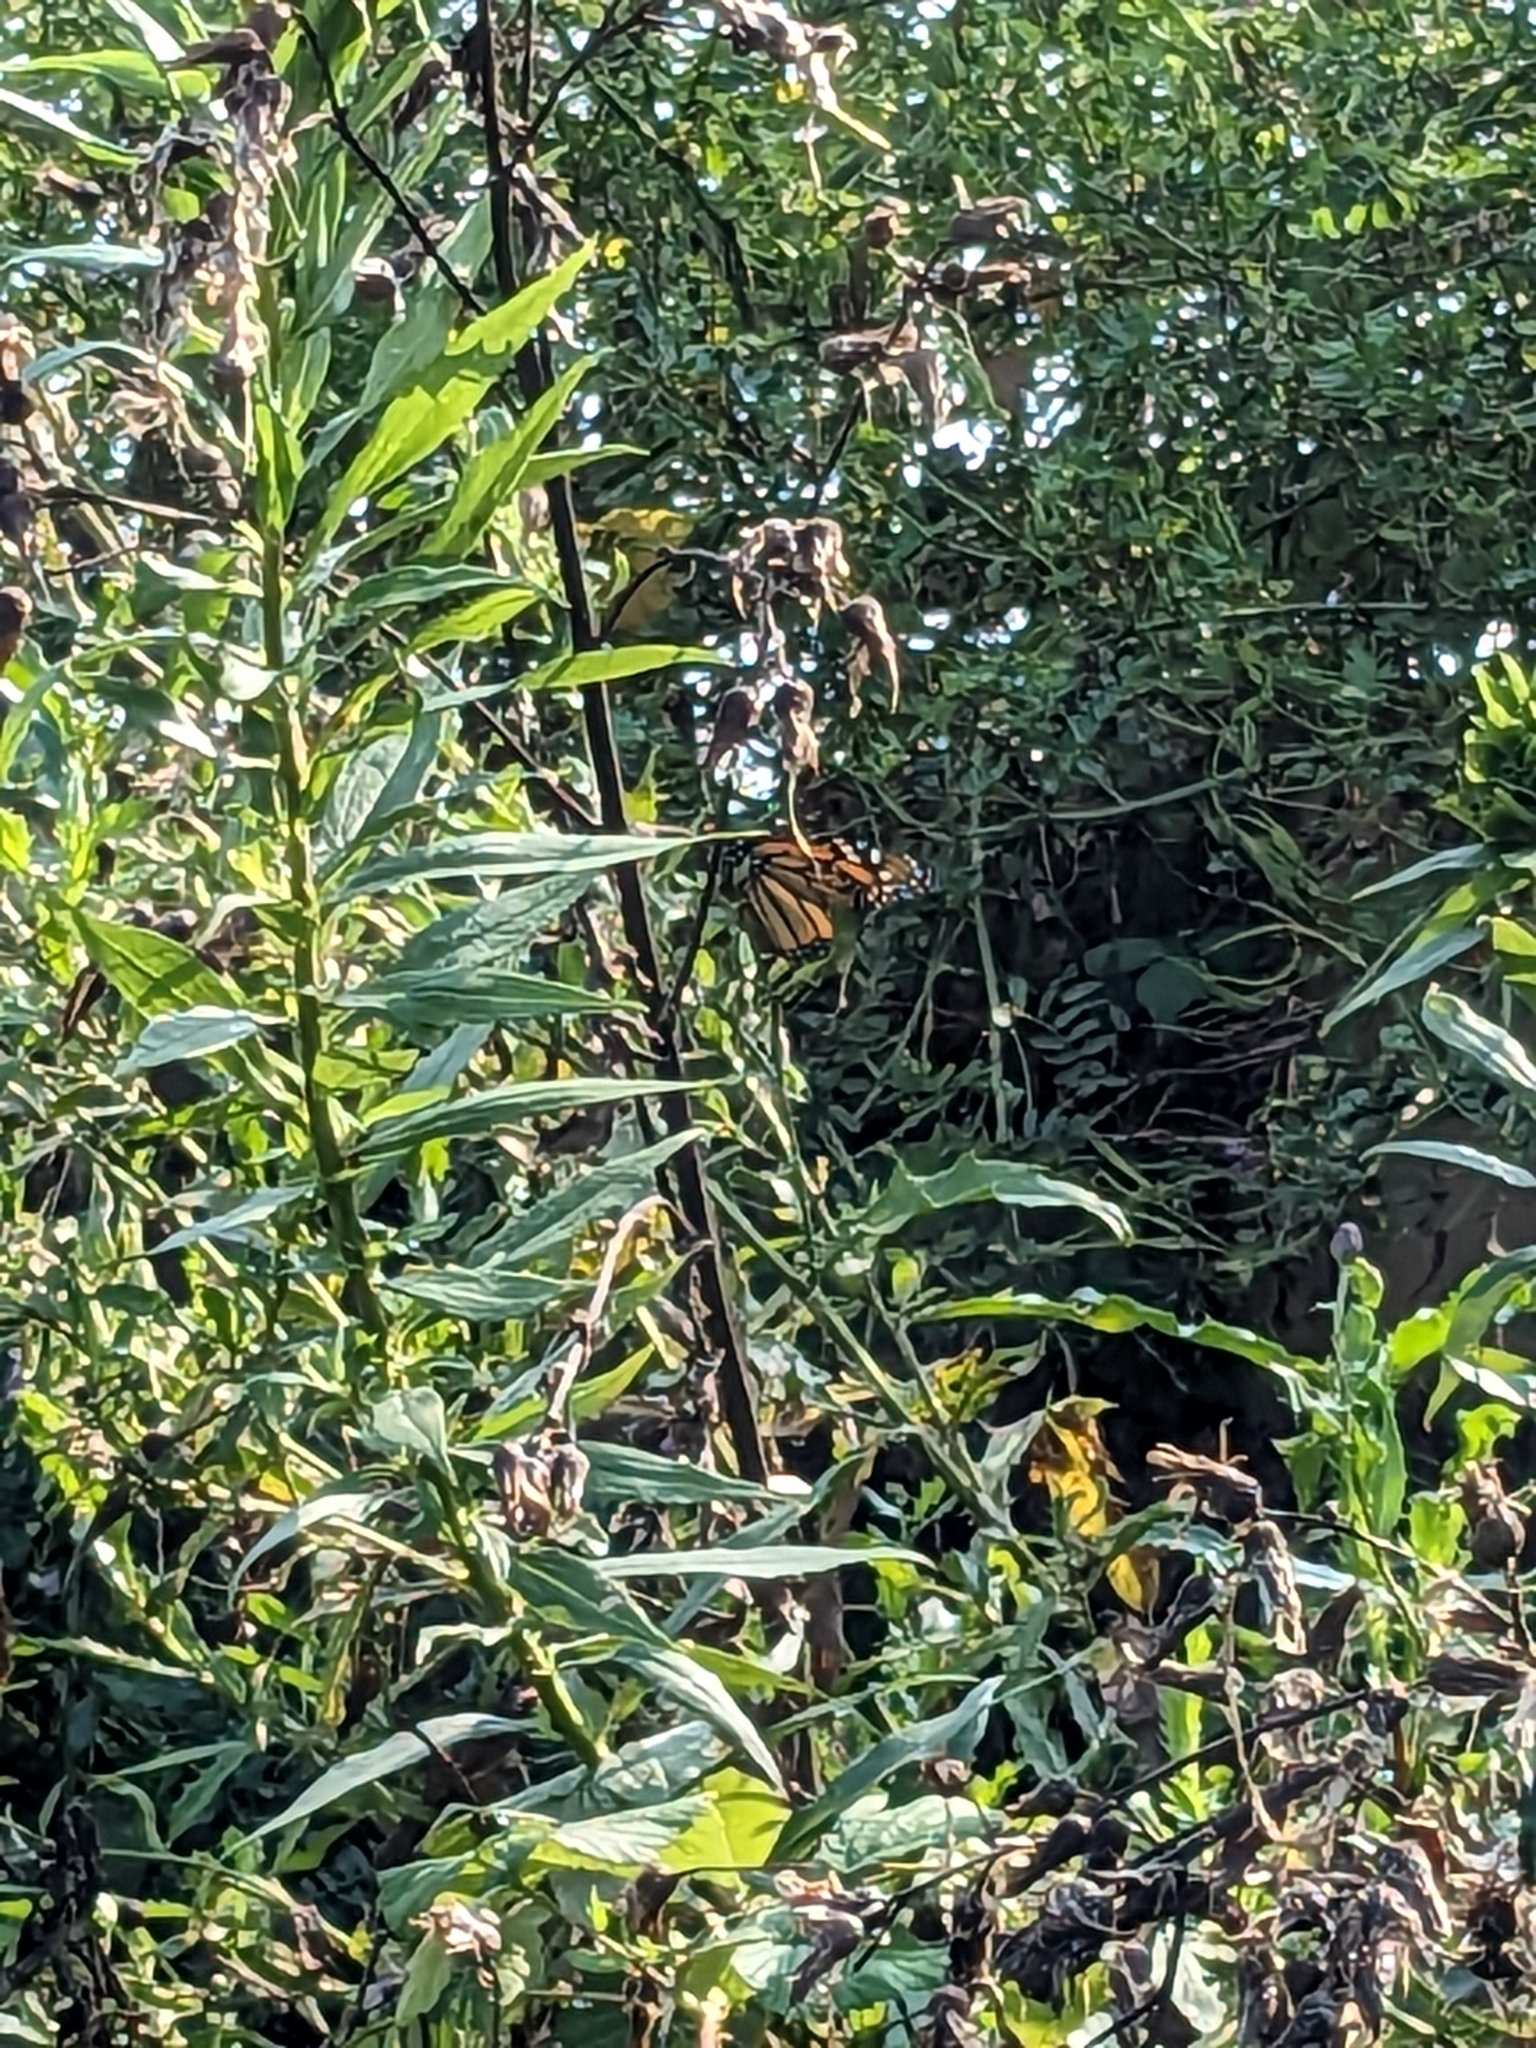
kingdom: Animalia
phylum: Arthropoda
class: Insecta
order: Lepidoptera
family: Nymphalidae
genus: Danaus
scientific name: Danaus plexippus
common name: Monarch
